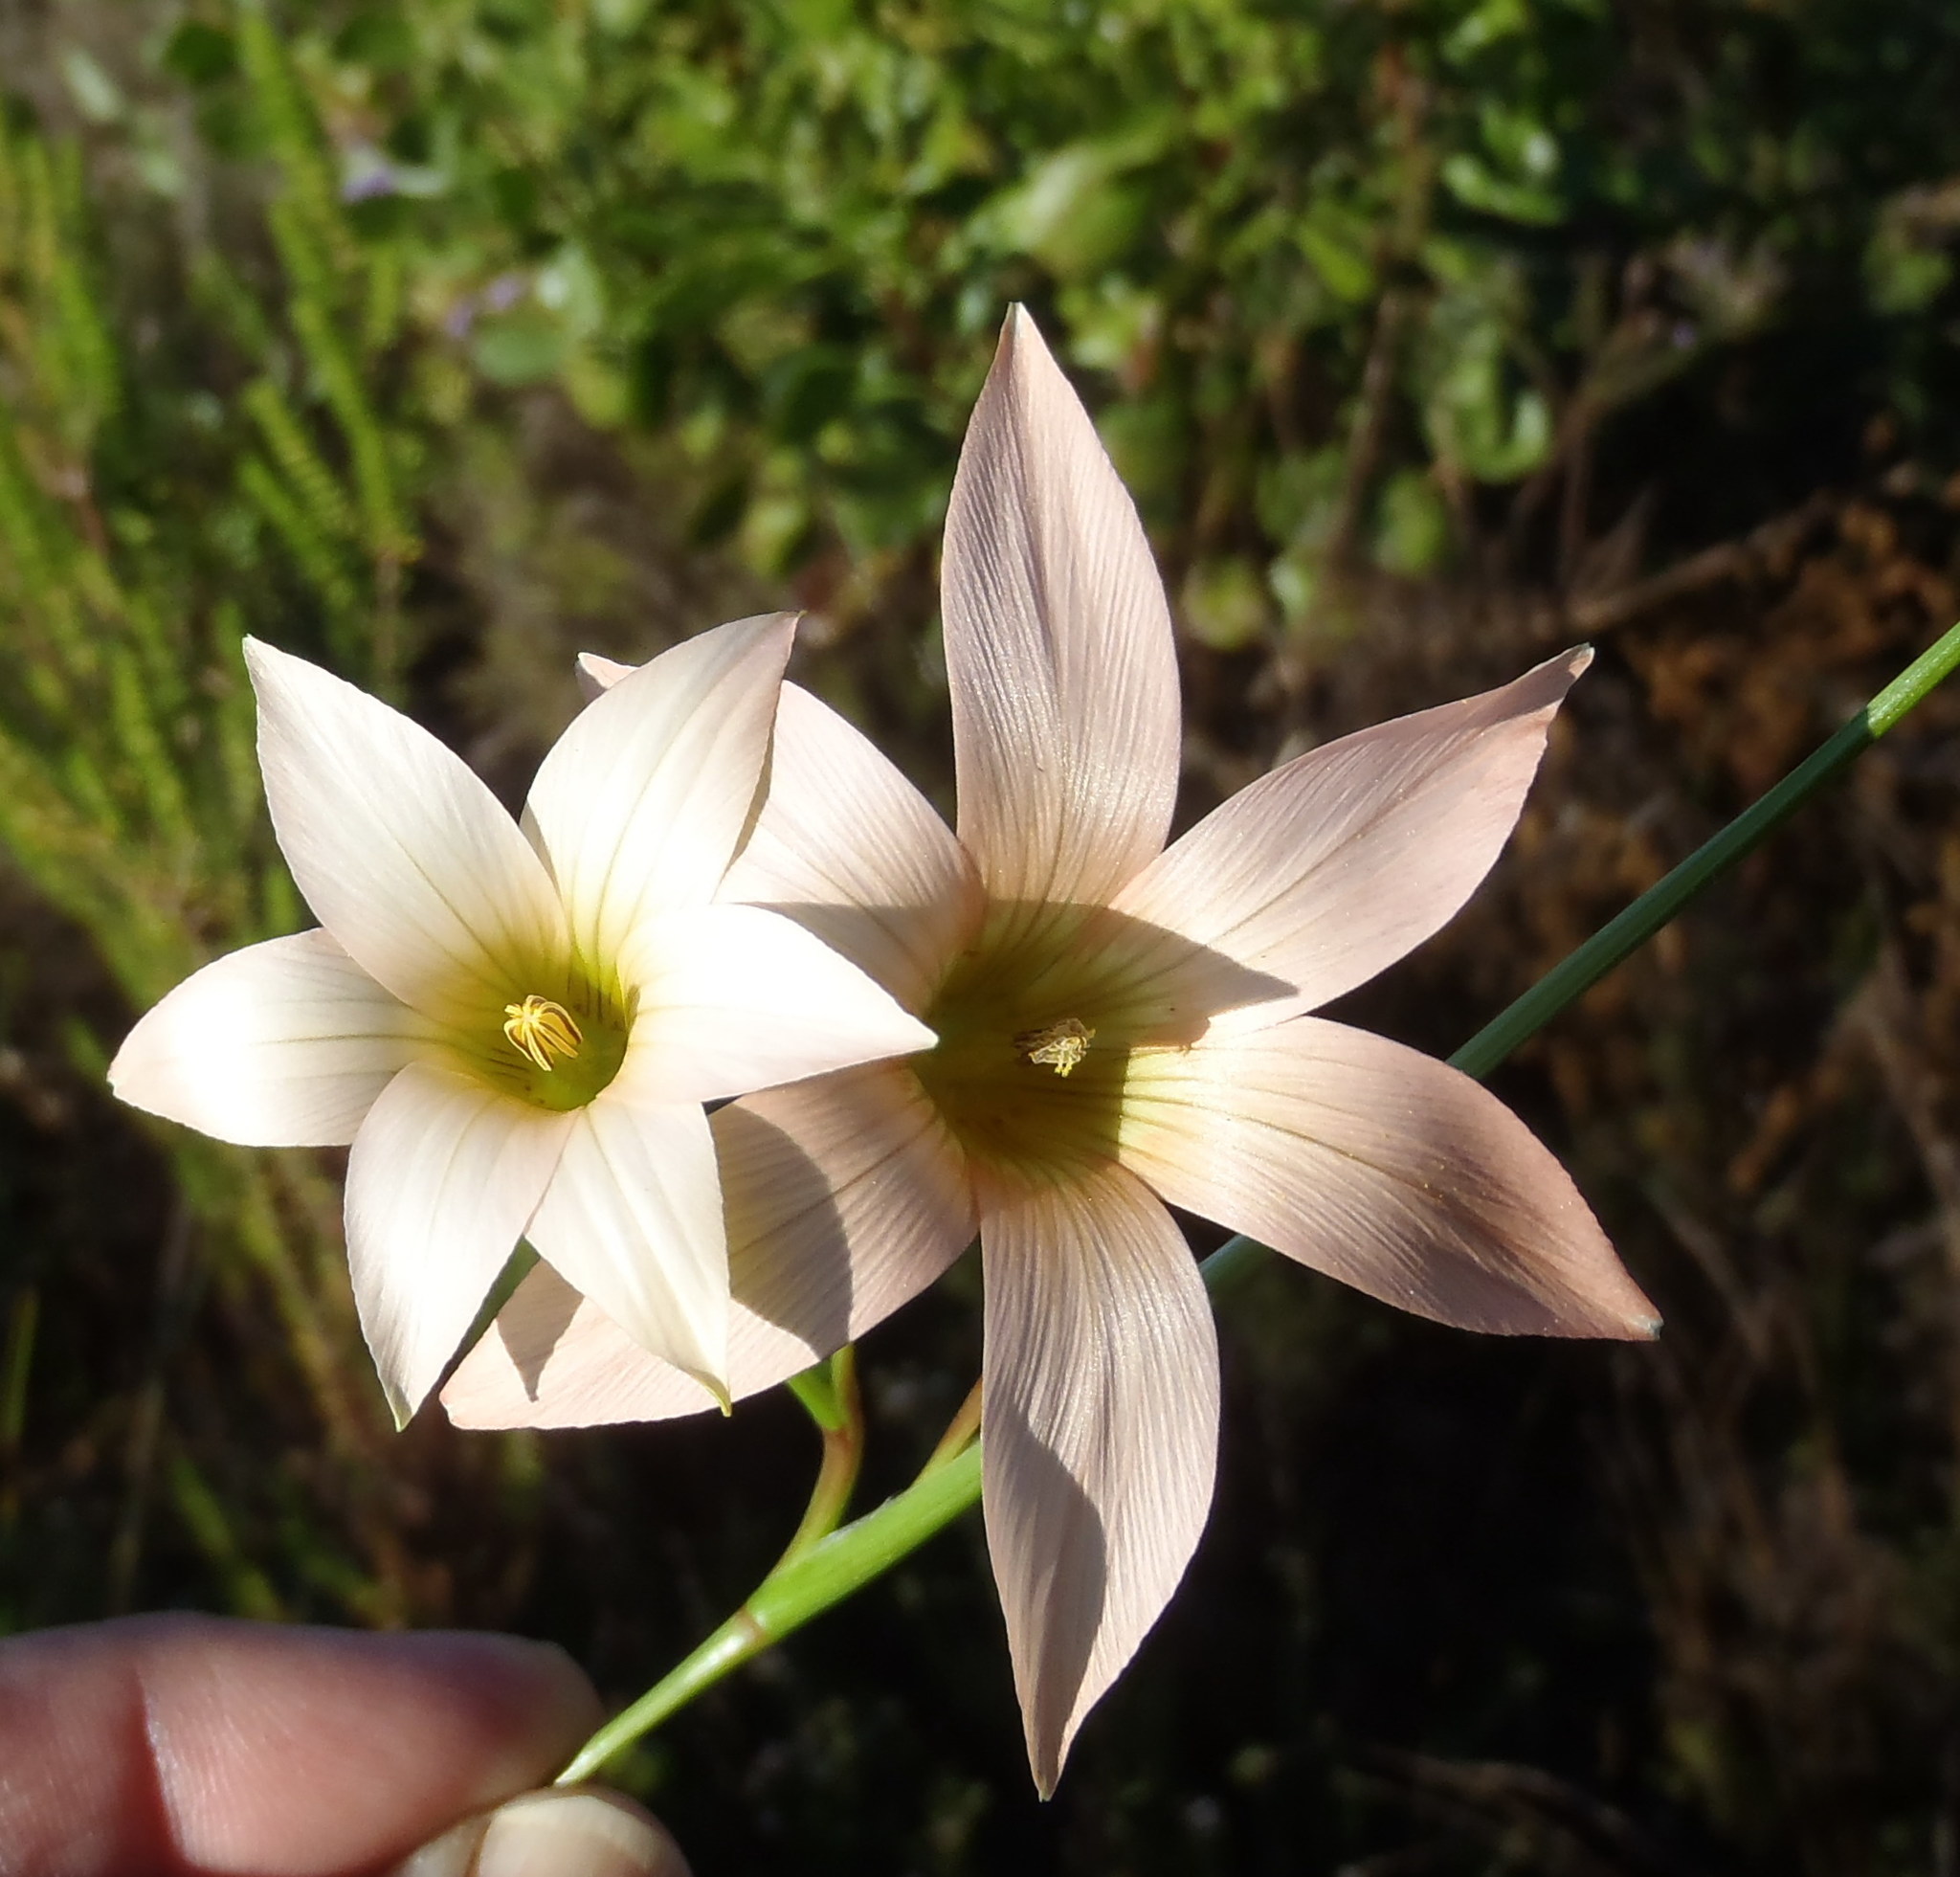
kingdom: Plantae
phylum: Tracheophyta
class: Liliopsida
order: Asparagales
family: Iridaceae
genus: Romulea
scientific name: Romulea dichotoma
